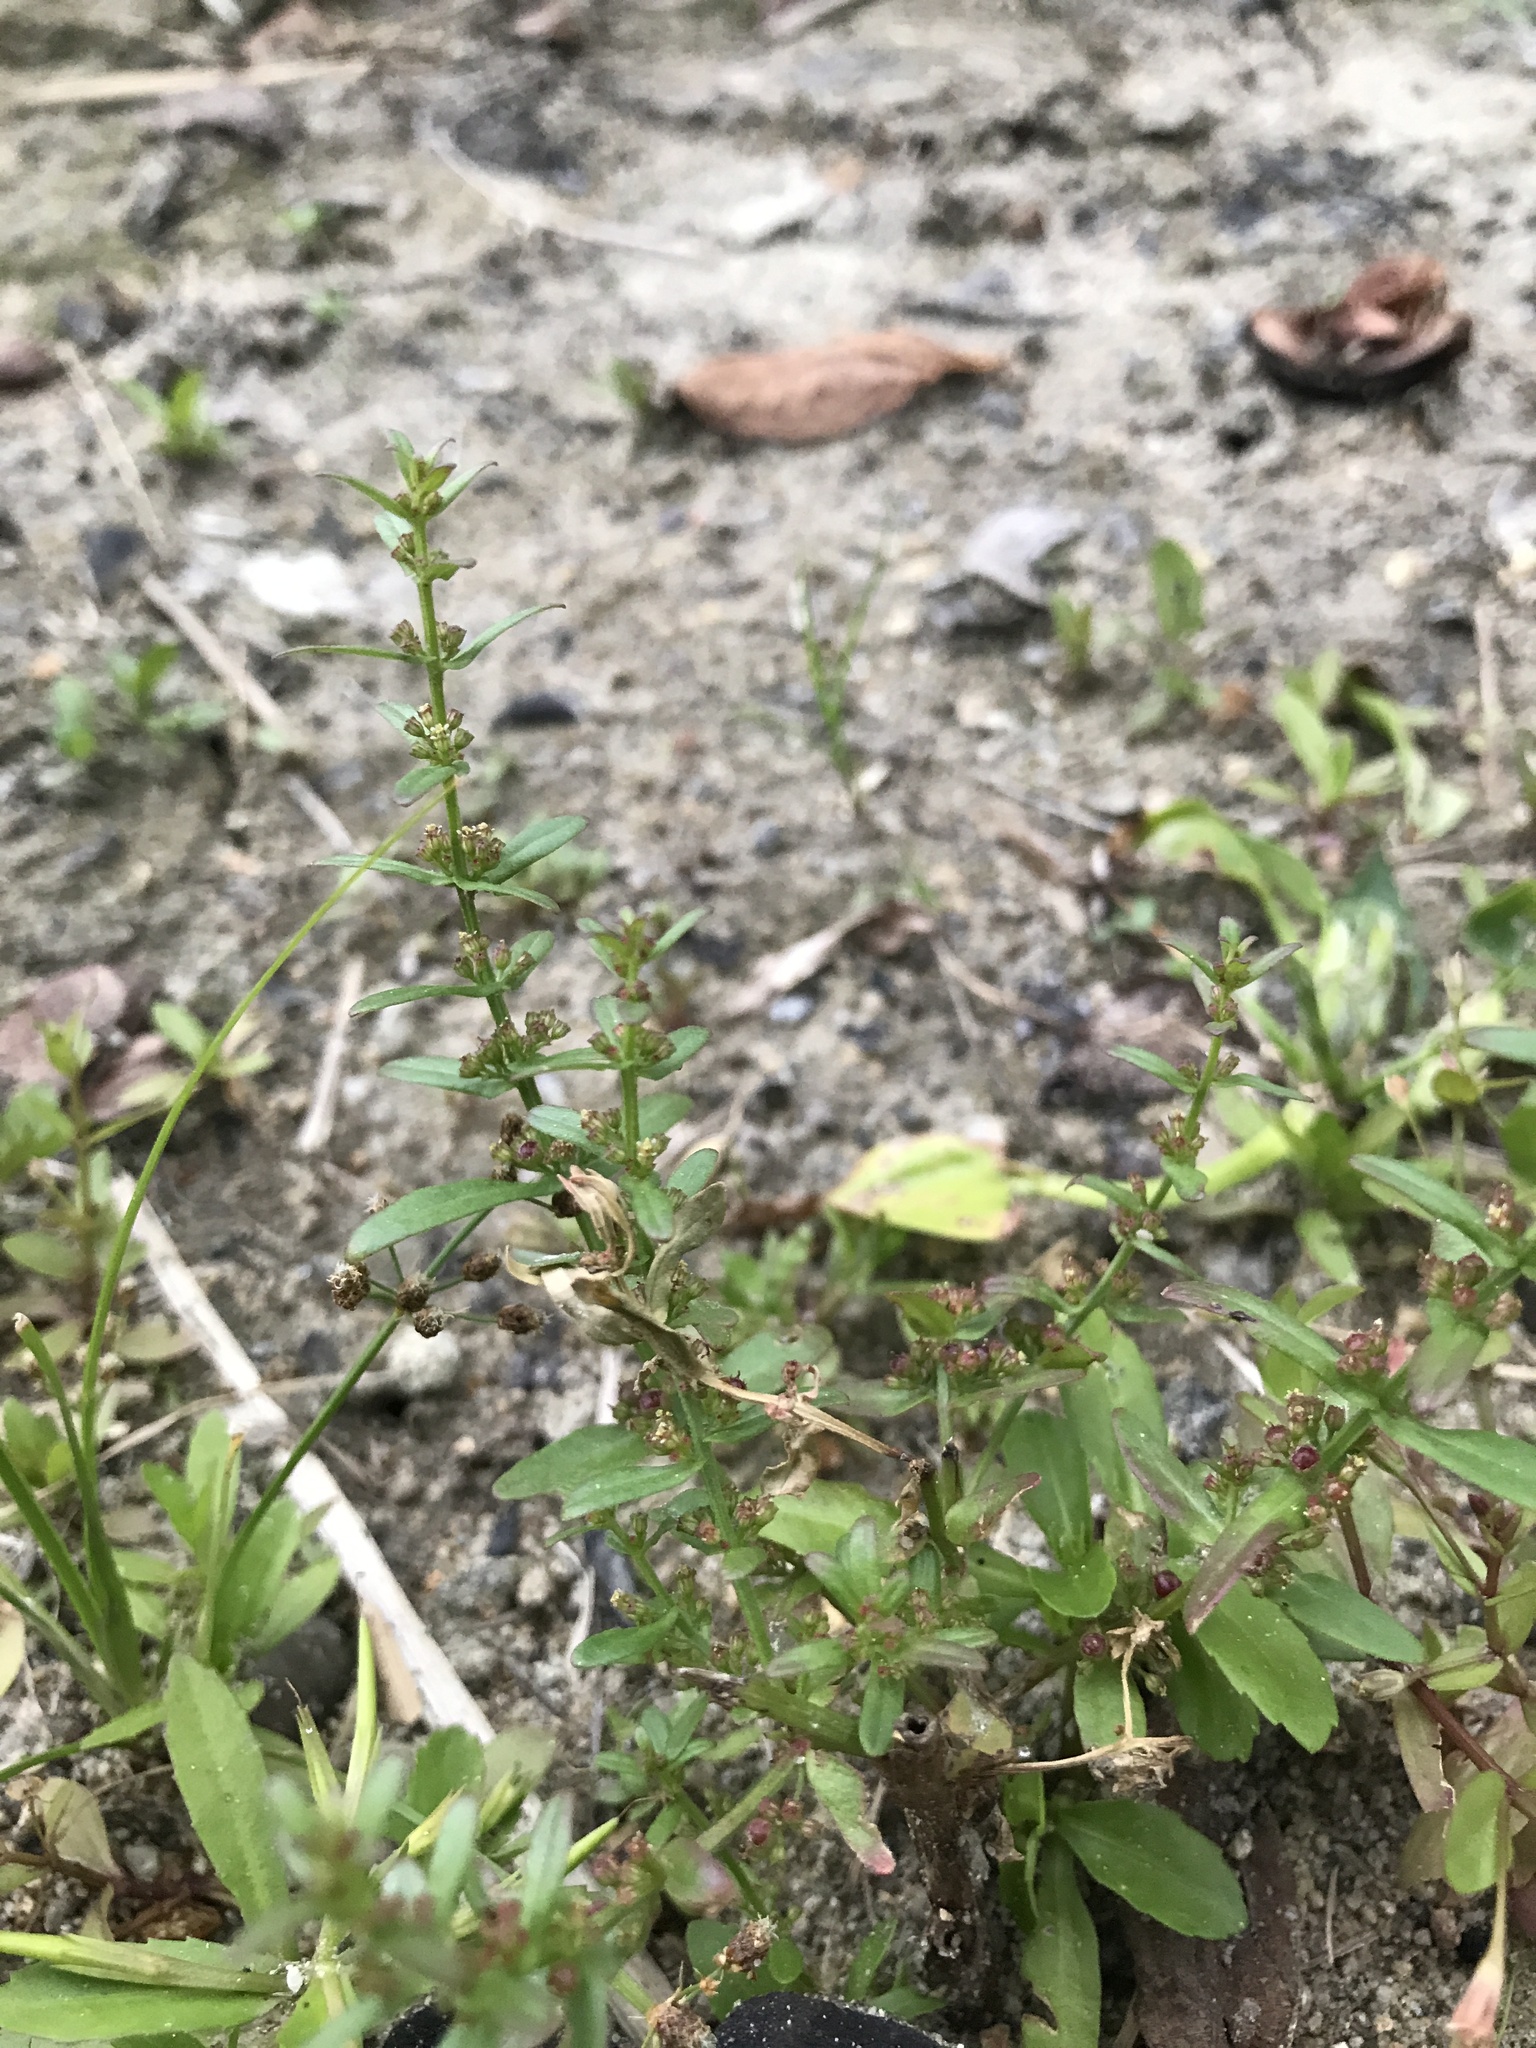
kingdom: Plantae
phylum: Tracheophyta
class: Magnoliopsida
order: Myrtales
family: Lythraceae
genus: Ammannia
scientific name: Ammannia auriculata
